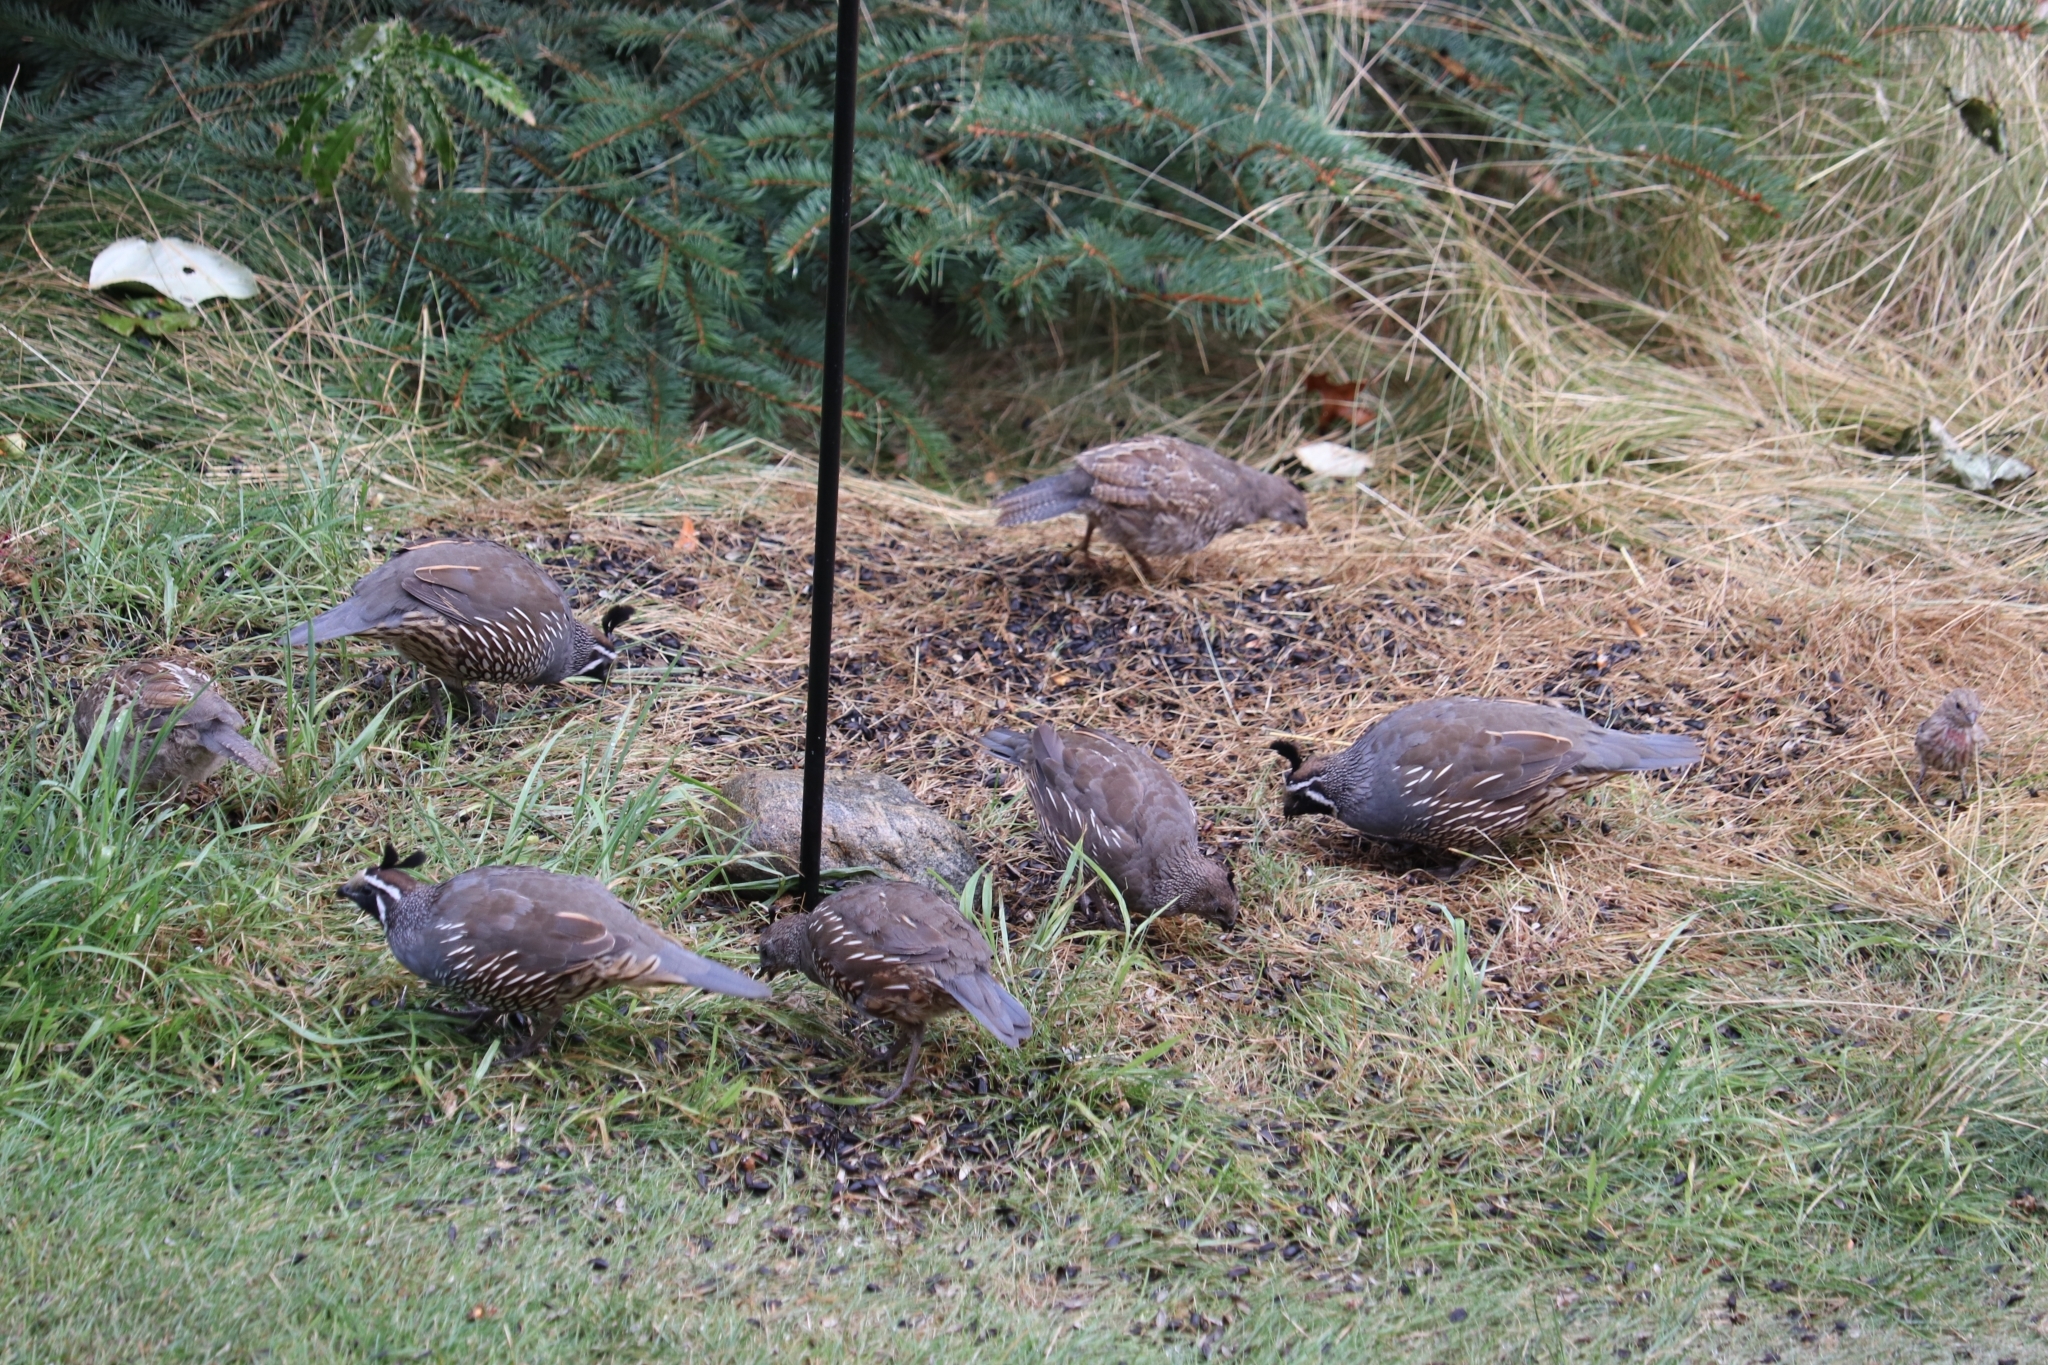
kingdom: Animalia
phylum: Chordata
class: Aves
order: Galliformes
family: Odontophoridae
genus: Callipepla
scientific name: Callipepla californica
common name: California quail
